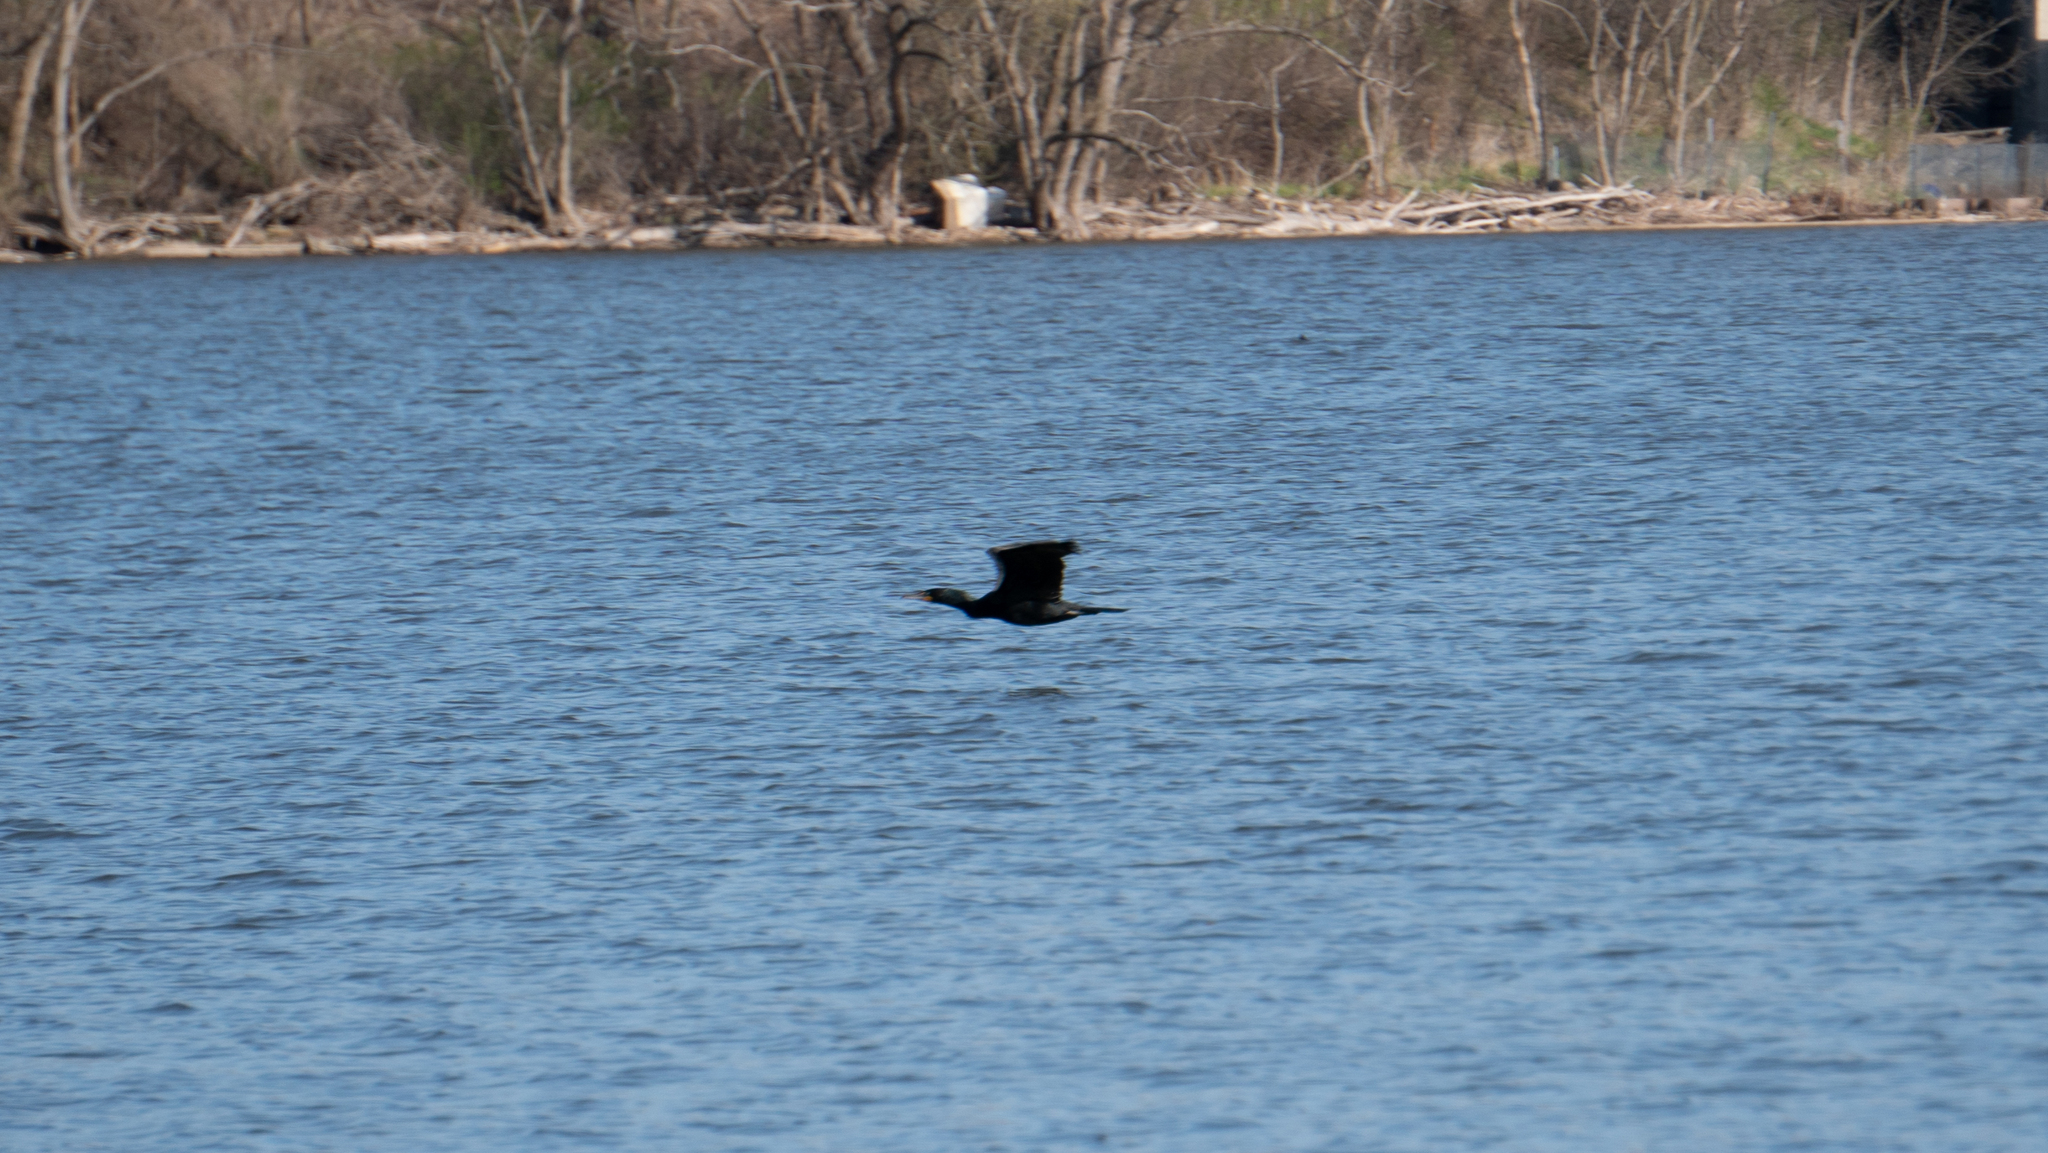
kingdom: Animalia
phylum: Chordata
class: Aves
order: Suliformes
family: Phalacrocoracidae
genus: Phalacrocorax
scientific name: Phalacrocorax auritus
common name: Double-crested cormorant
